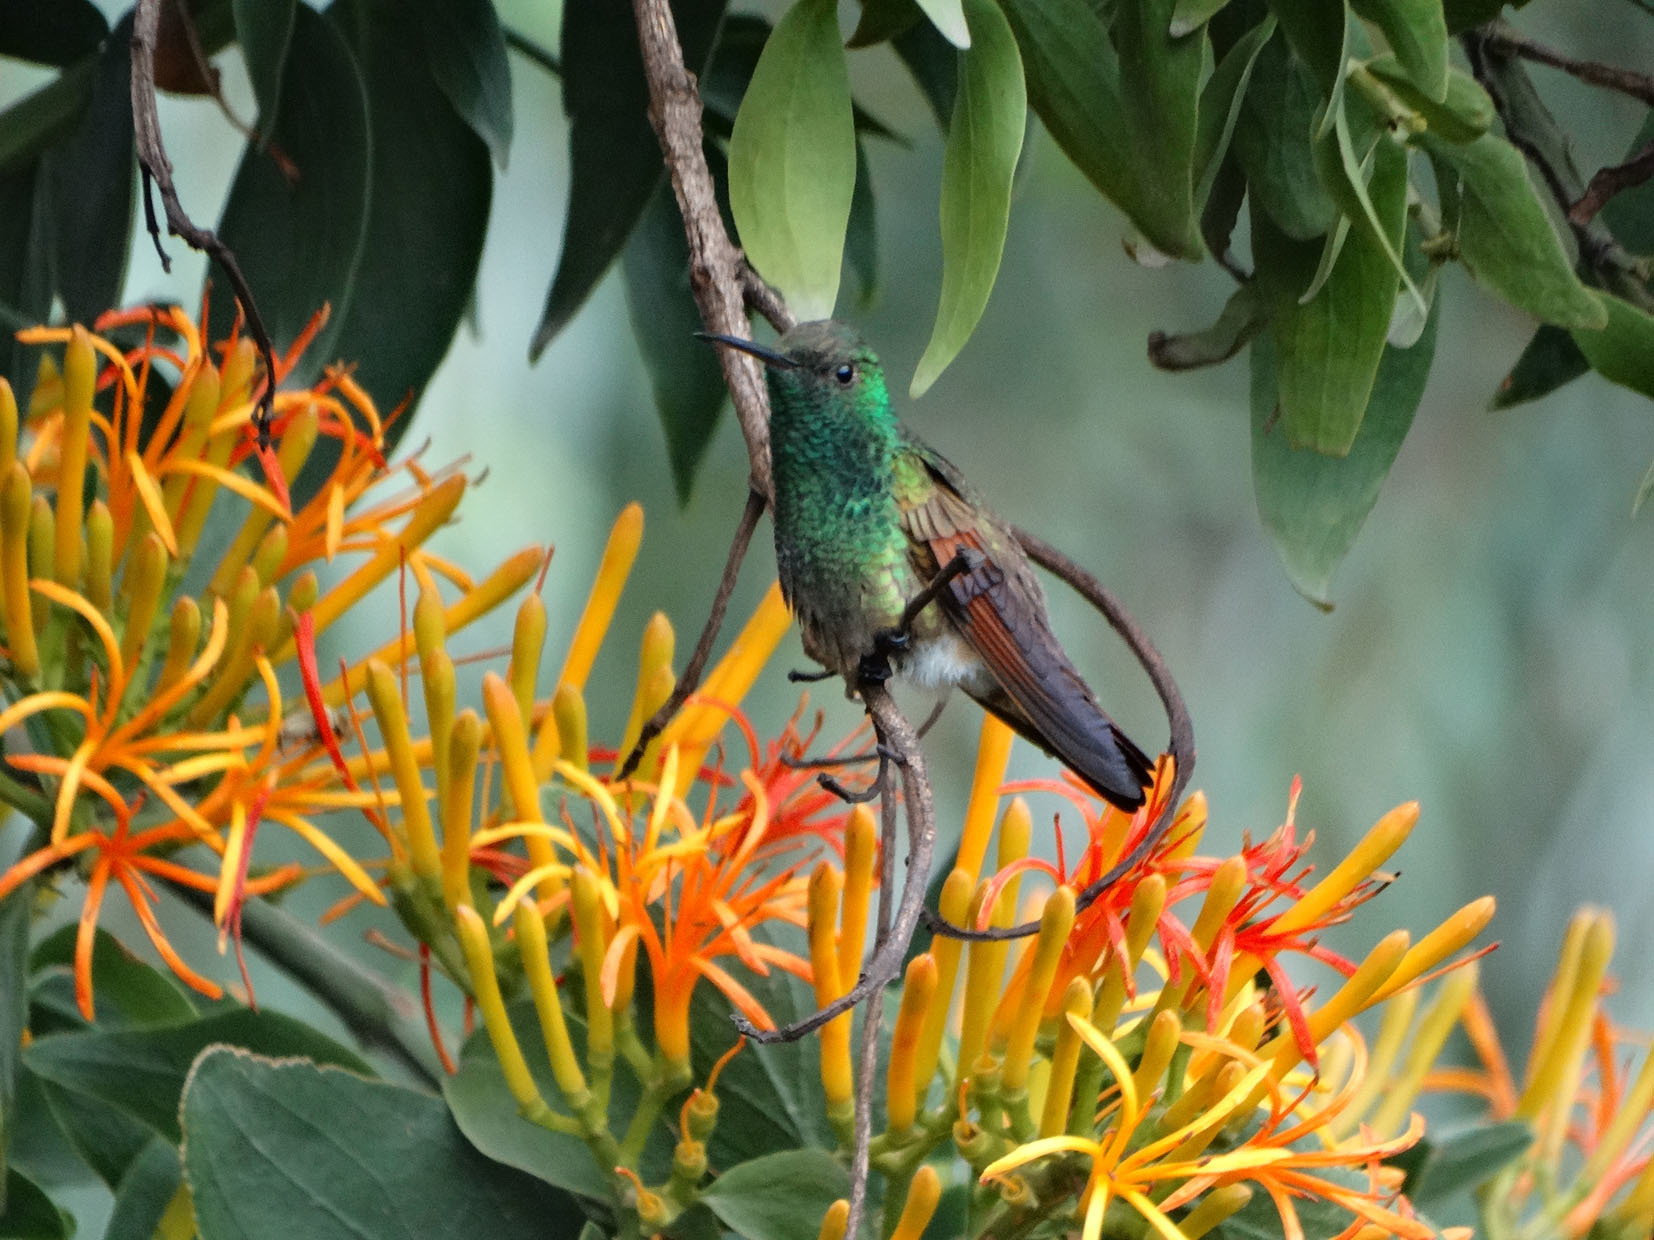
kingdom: Animalia
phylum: Chordata
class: Aves
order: Apodiformes
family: Trochilidae
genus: Saucerottia
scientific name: Saucerottia beryllina
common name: Berylline hummingbird
